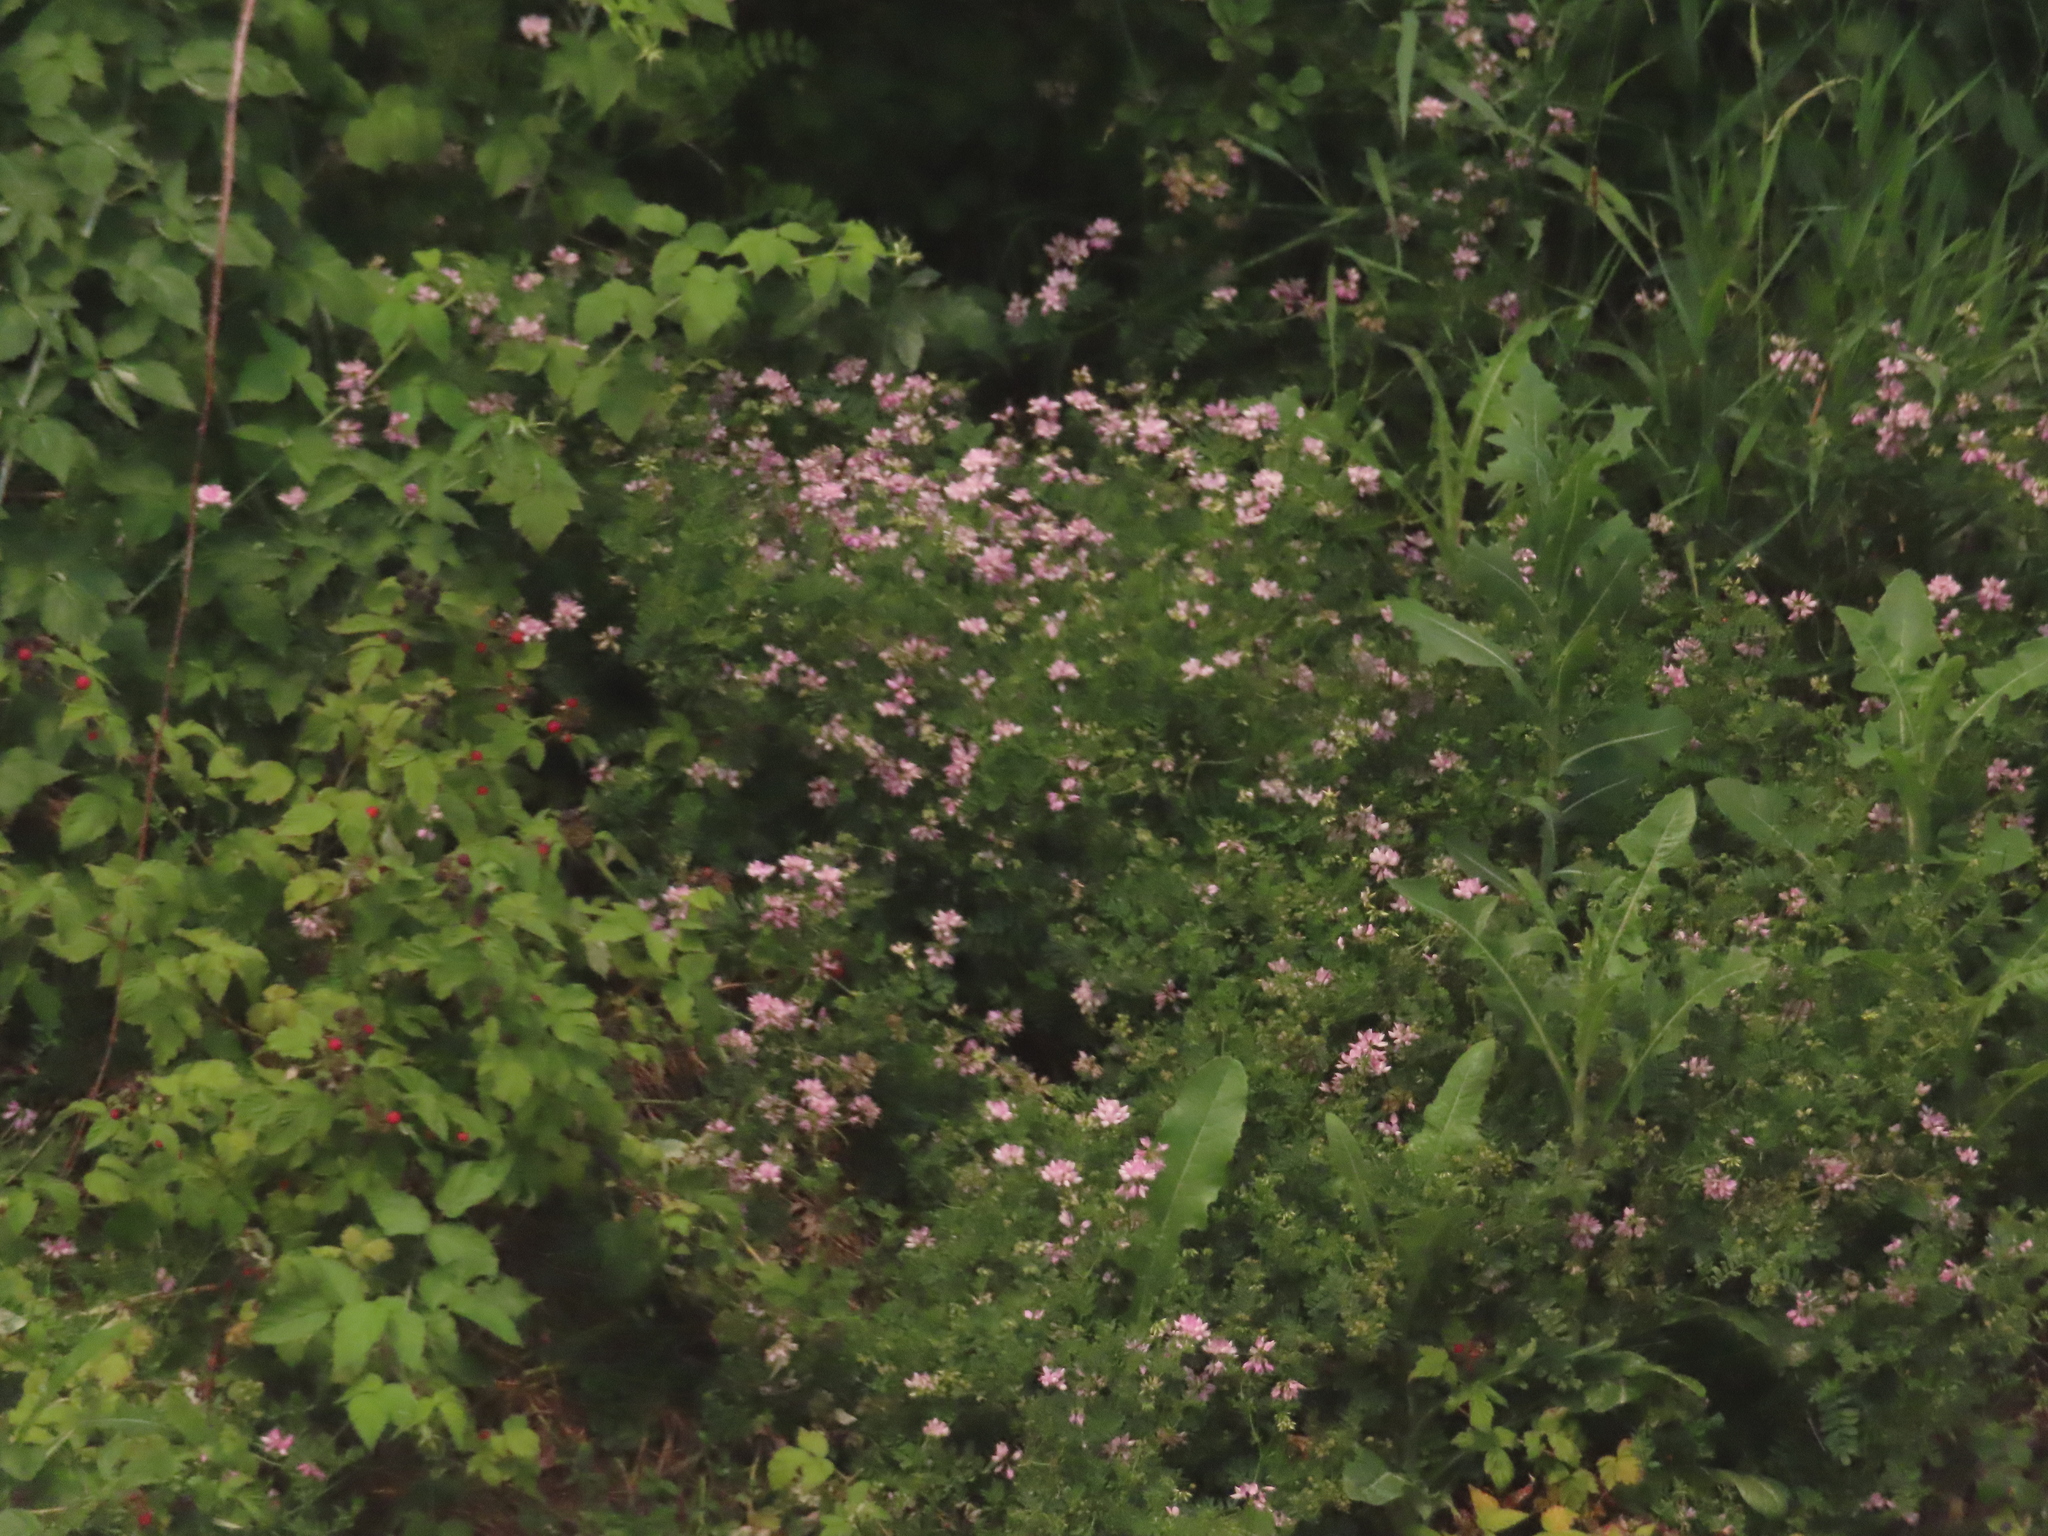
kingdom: Plantae
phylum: Tracheophyta
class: Magnoliopsida
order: Fabales
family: Fabaceae
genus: Coronilla
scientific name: Coronilla varia
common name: Crownvetch
